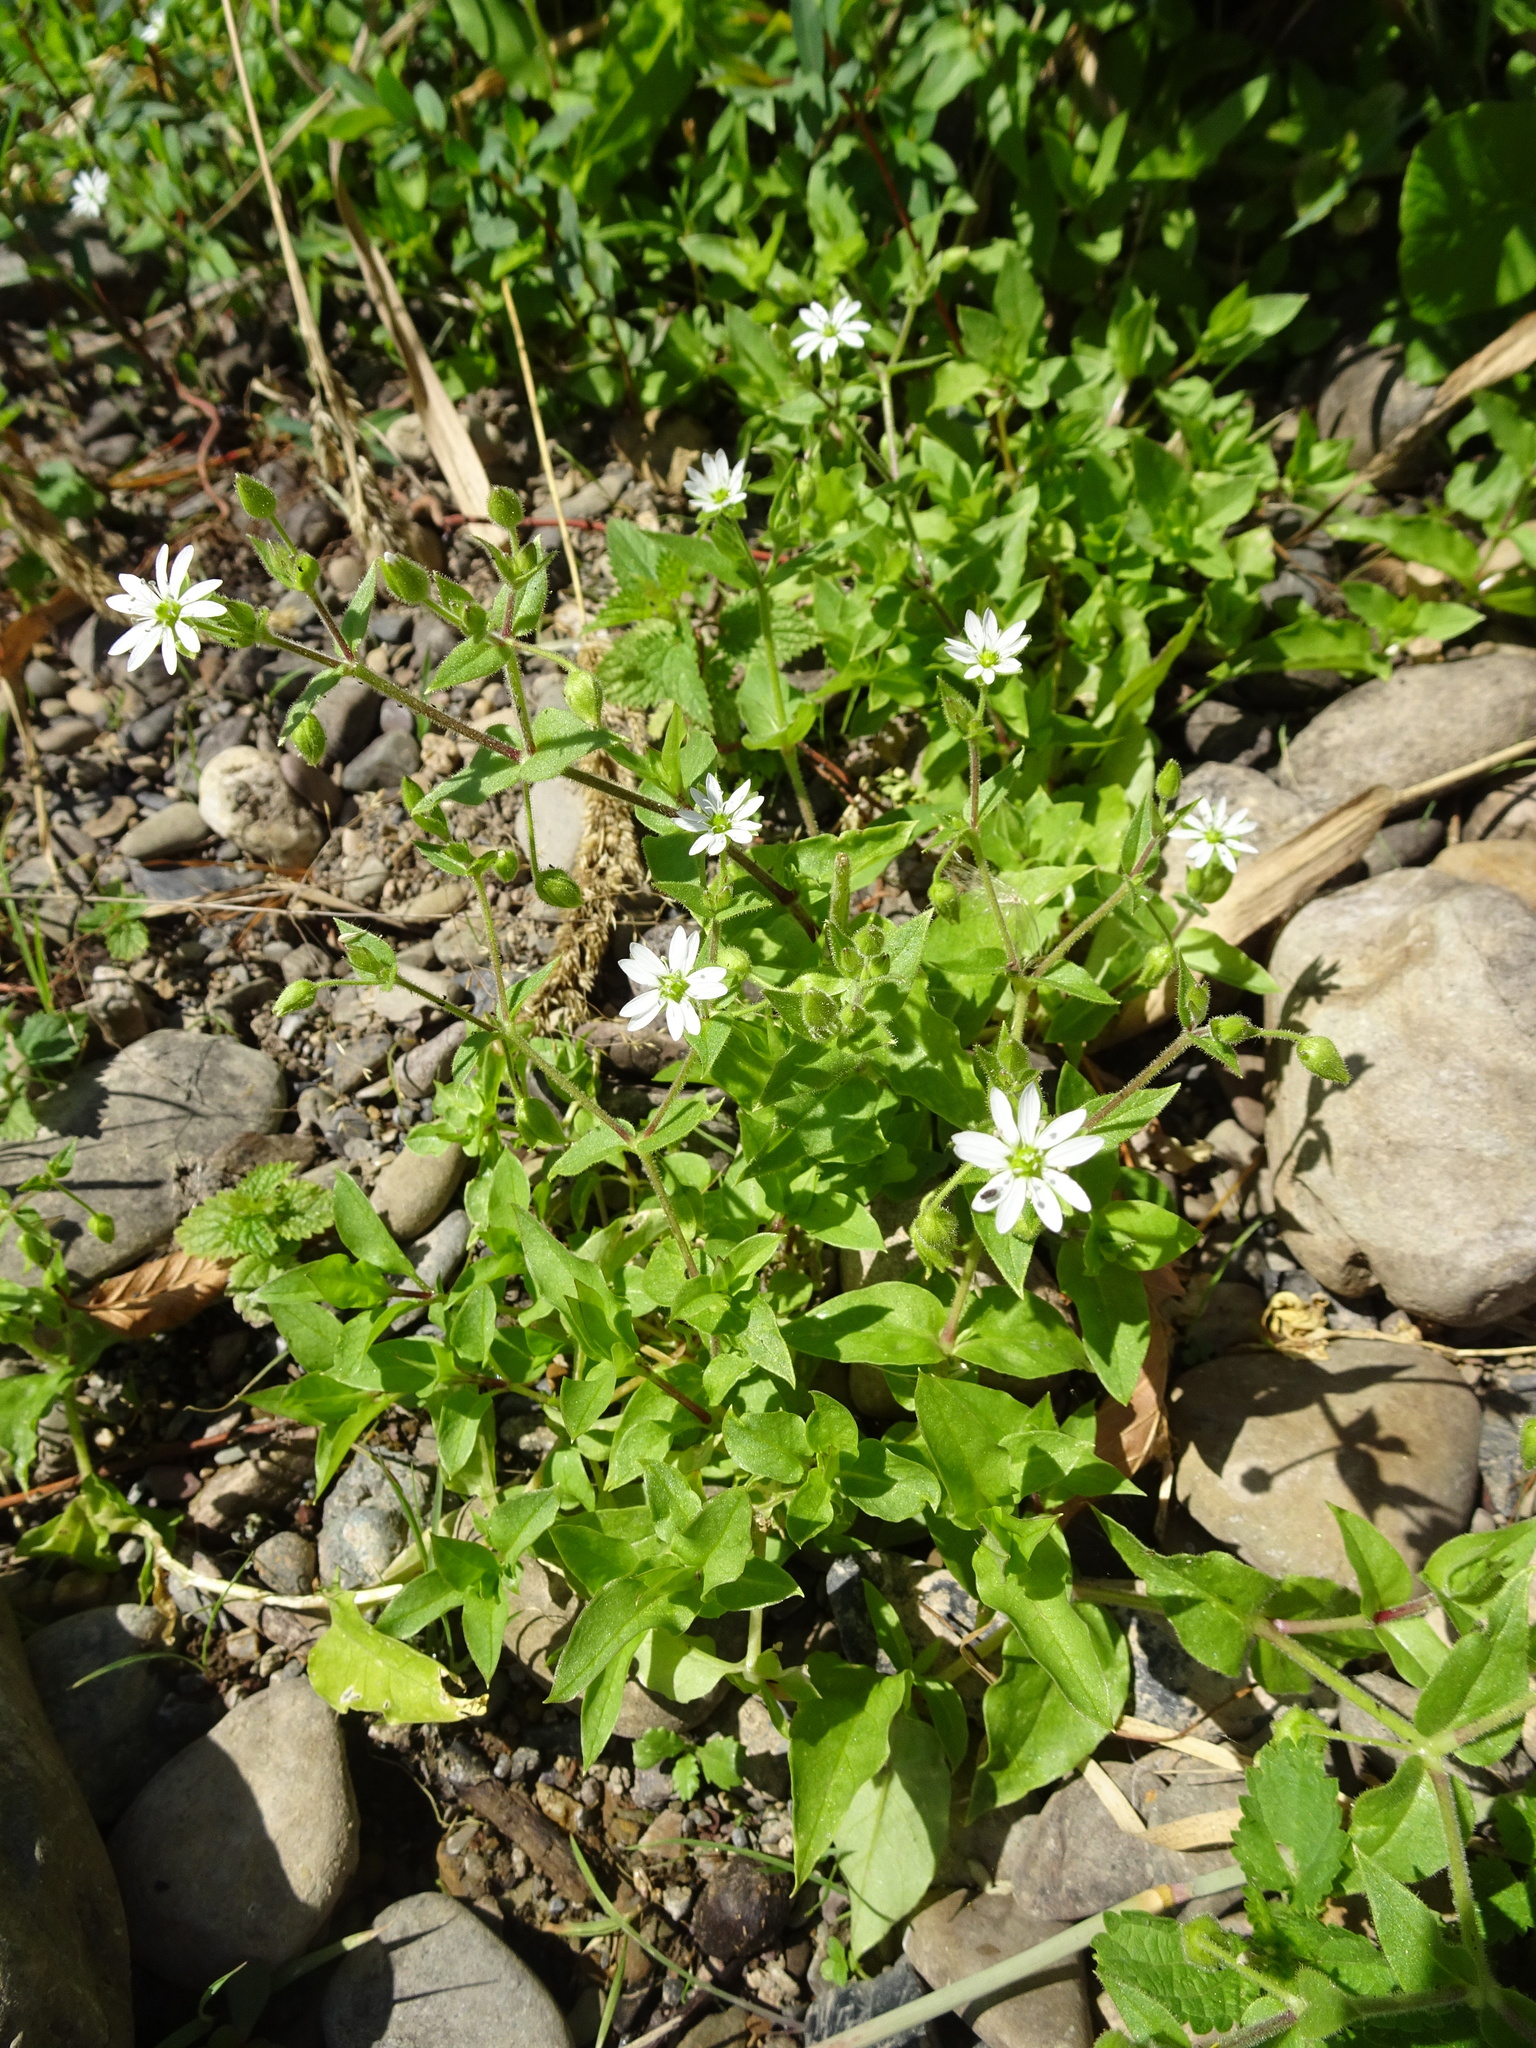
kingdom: Plantae
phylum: Tracheophyta
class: Magnoliopsida
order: Caryophyllales
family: Caryophyllaceae
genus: Stellaria
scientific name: Stellaria aquatica
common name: Water chickweed
